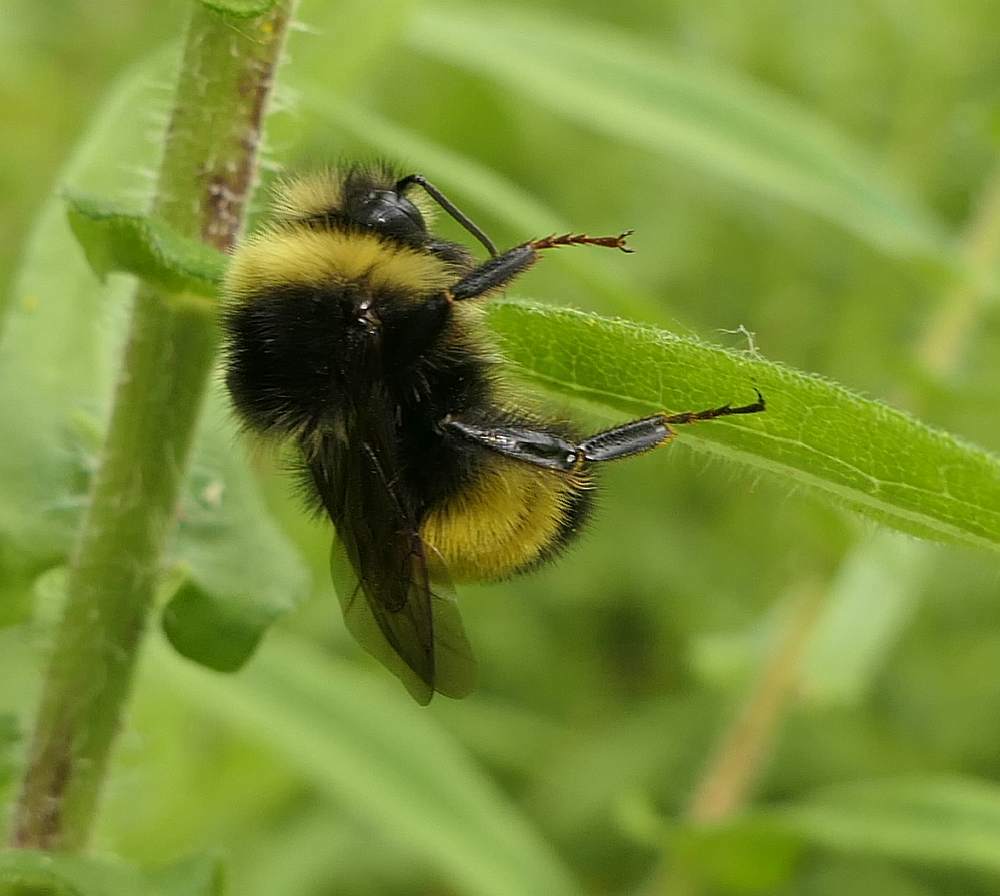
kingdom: Animalia
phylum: Arthropoda
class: Insecta
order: Hymenoptera
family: Apidae
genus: Bombus
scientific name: Bombus terricola
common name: Yellow-banded bumble bee
